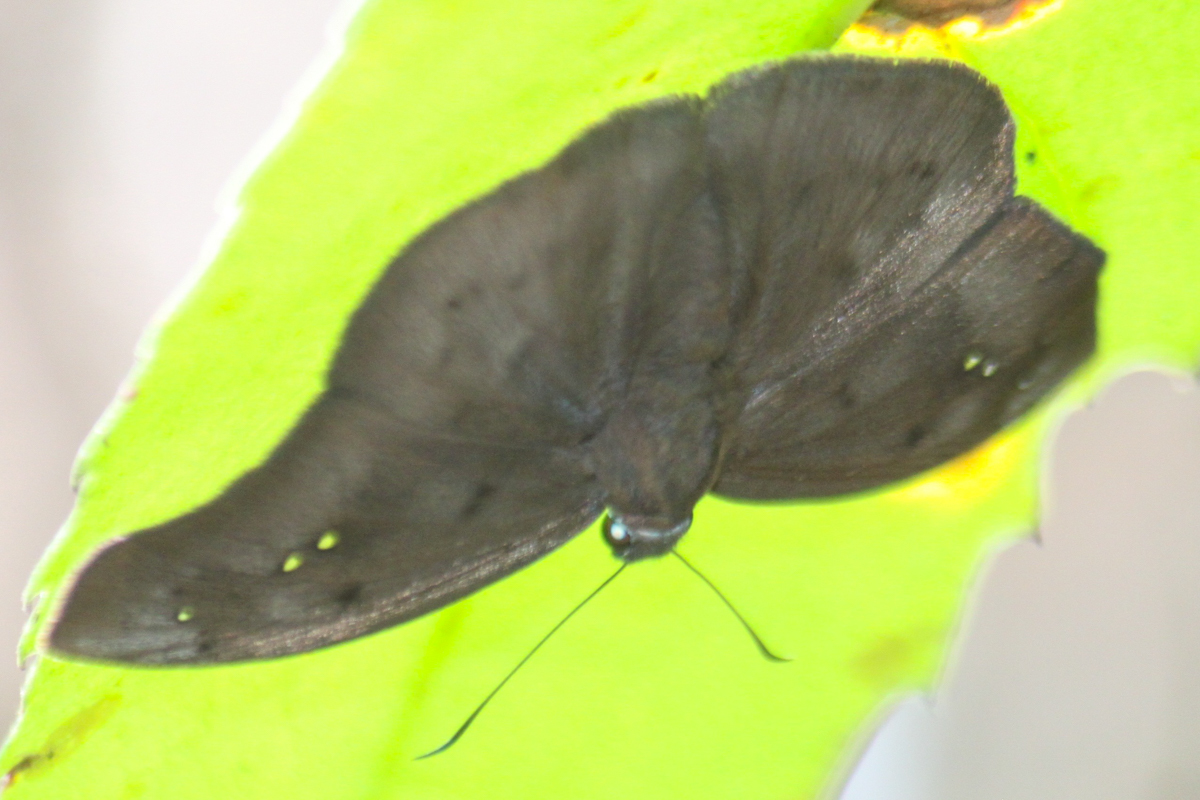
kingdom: Animalia
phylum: Arthropoda
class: Insecta
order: Lepidoptera
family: Hesperiidae
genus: Tagiades
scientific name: Tagiades japetus
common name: Pied flat
